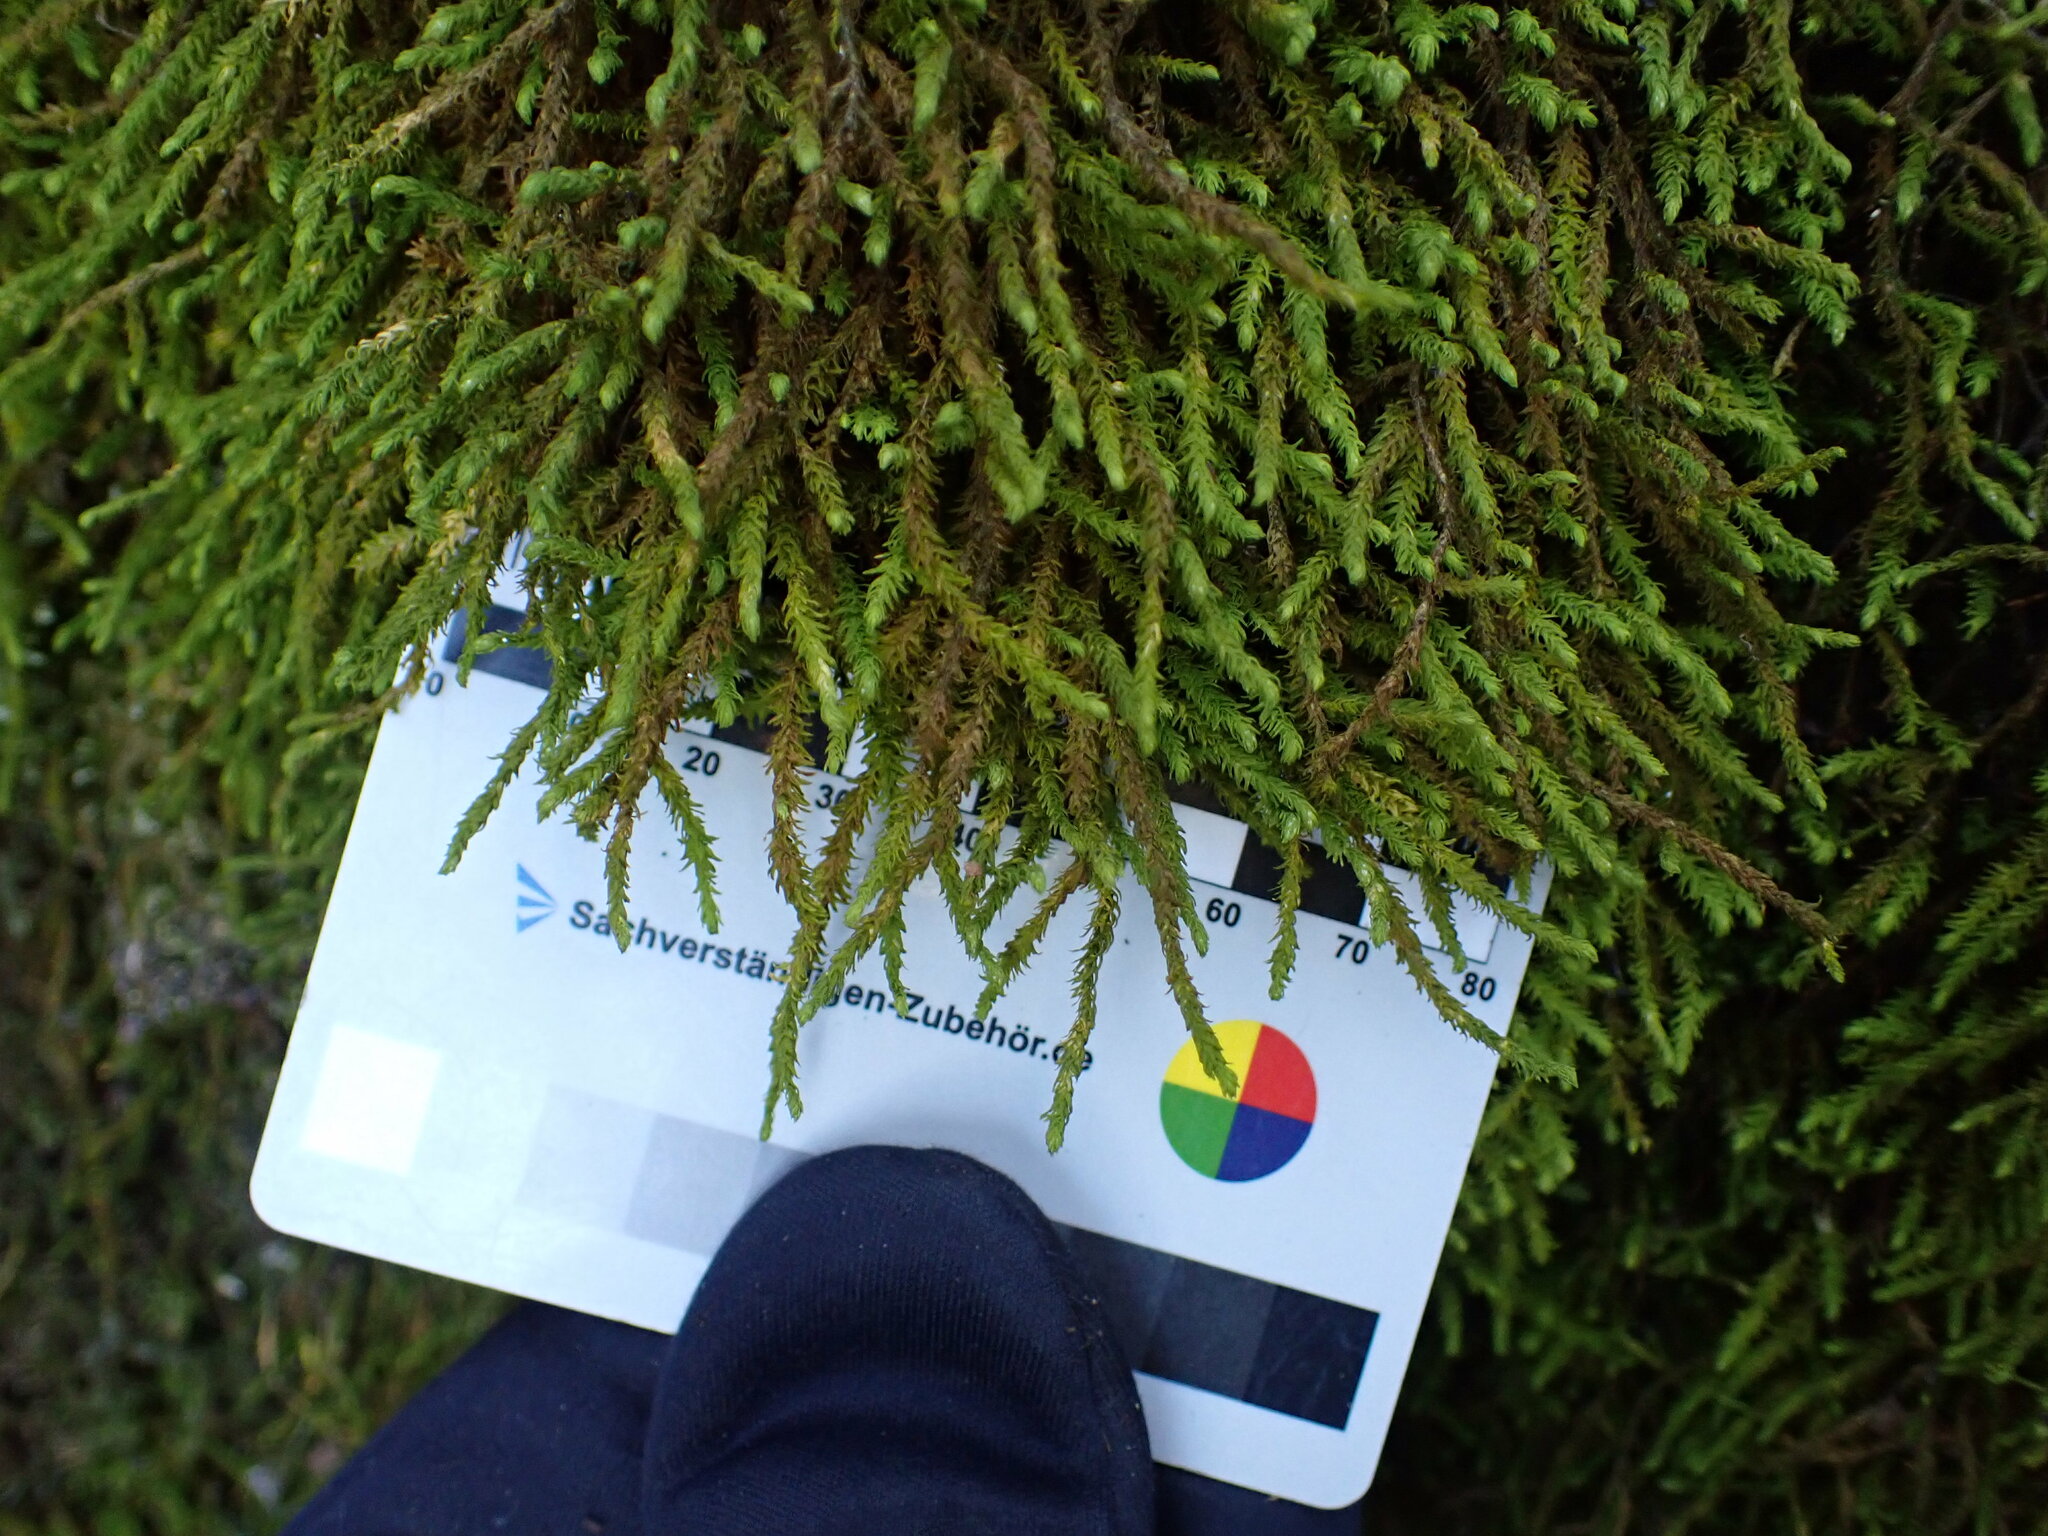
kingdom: Plantae
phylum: Bryophyta
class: Bryopsida
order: Hypnales
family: Anomodontaceae
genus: Anomodon
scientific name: Anomodon viticulosus
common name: Tall anomodon
